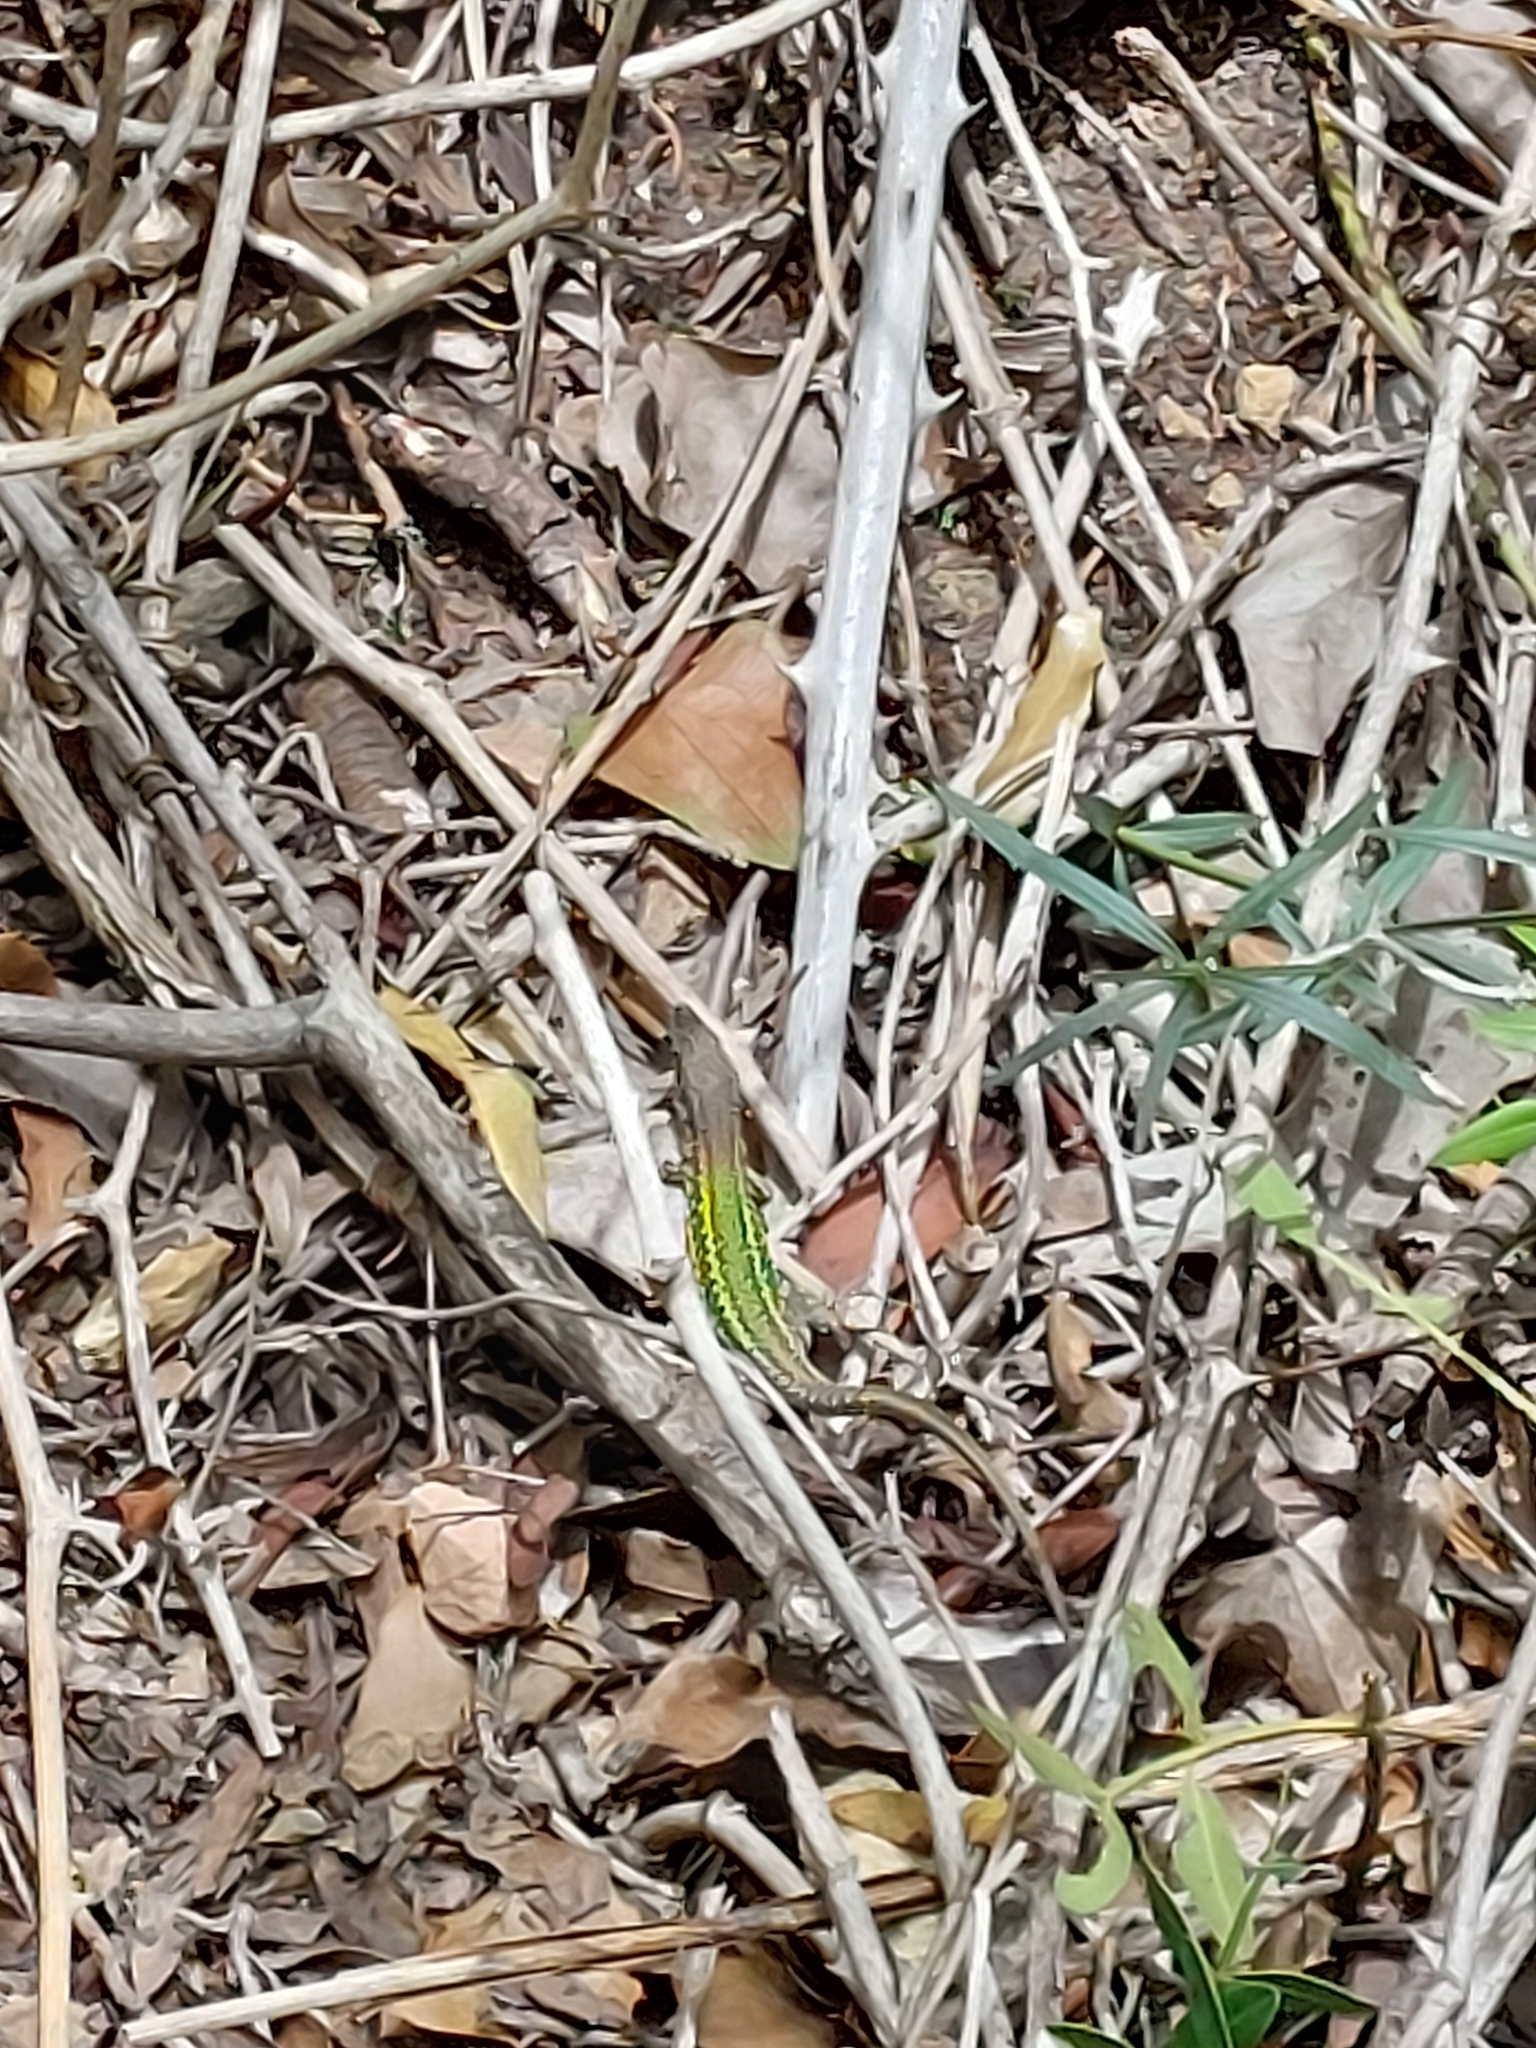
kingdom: Animalia
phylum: Chordata
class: Squamata
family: Lacertidae
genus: Podarcis
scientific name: Podarcis vaucheri
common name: Vaucher's wall lizard
